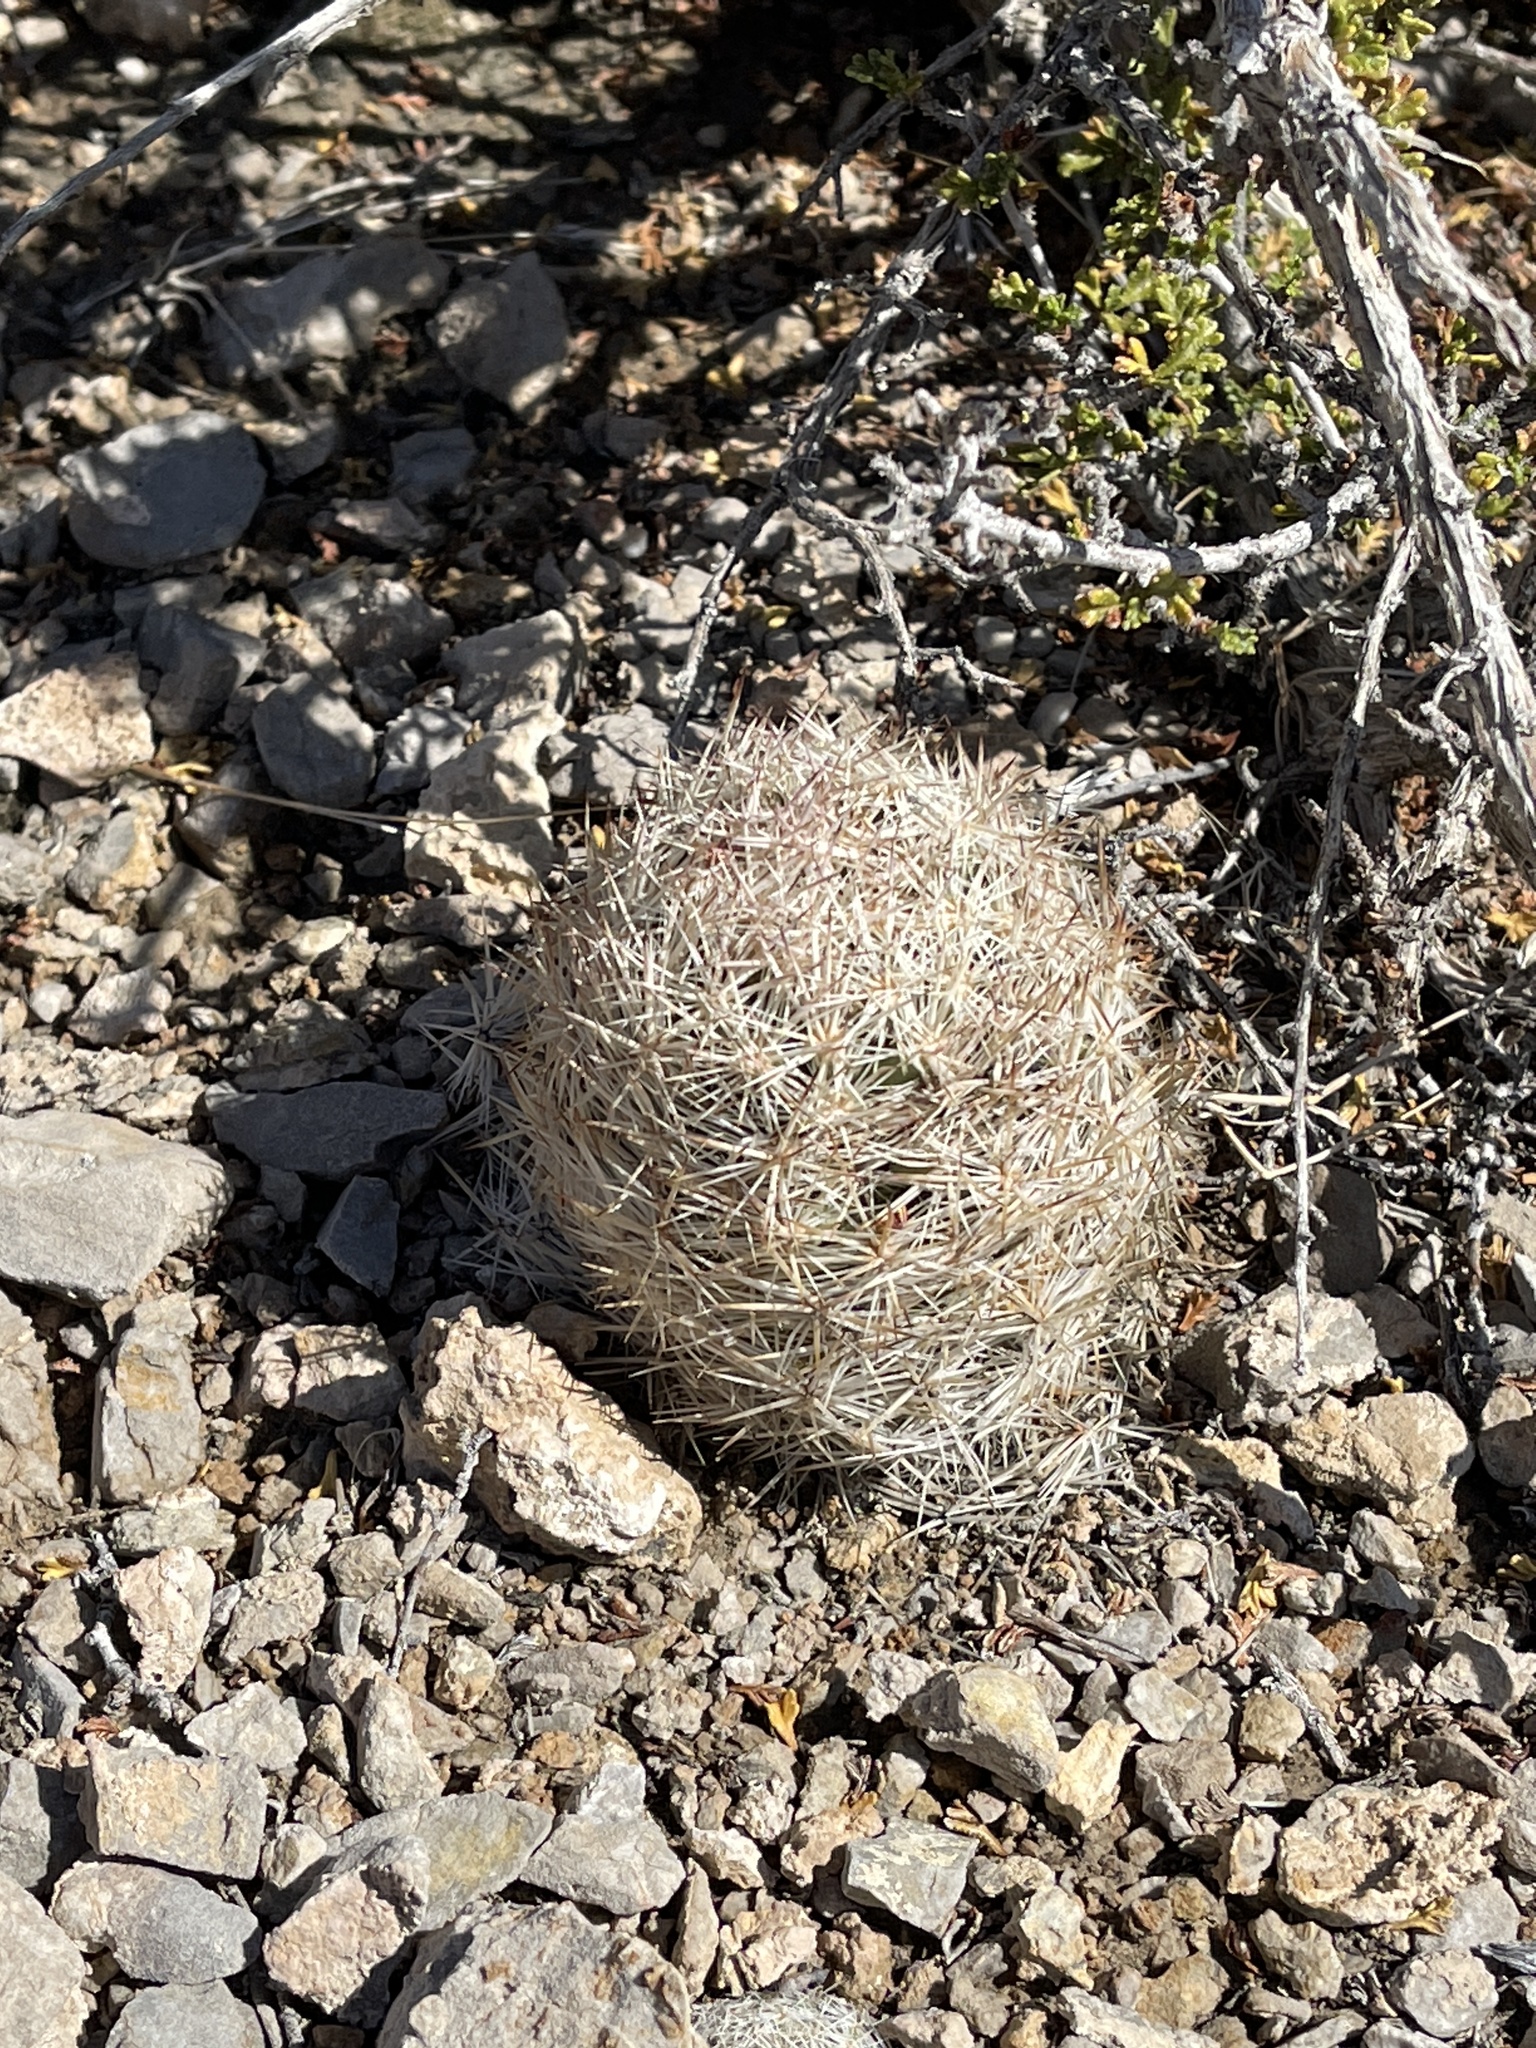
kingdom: Plantae
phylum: Tracheophyta
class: Magnoliopsida
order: Caryophyllales
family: Cactaceae
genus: Pelecyphora
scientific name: Pelecyphora dasyacantha
